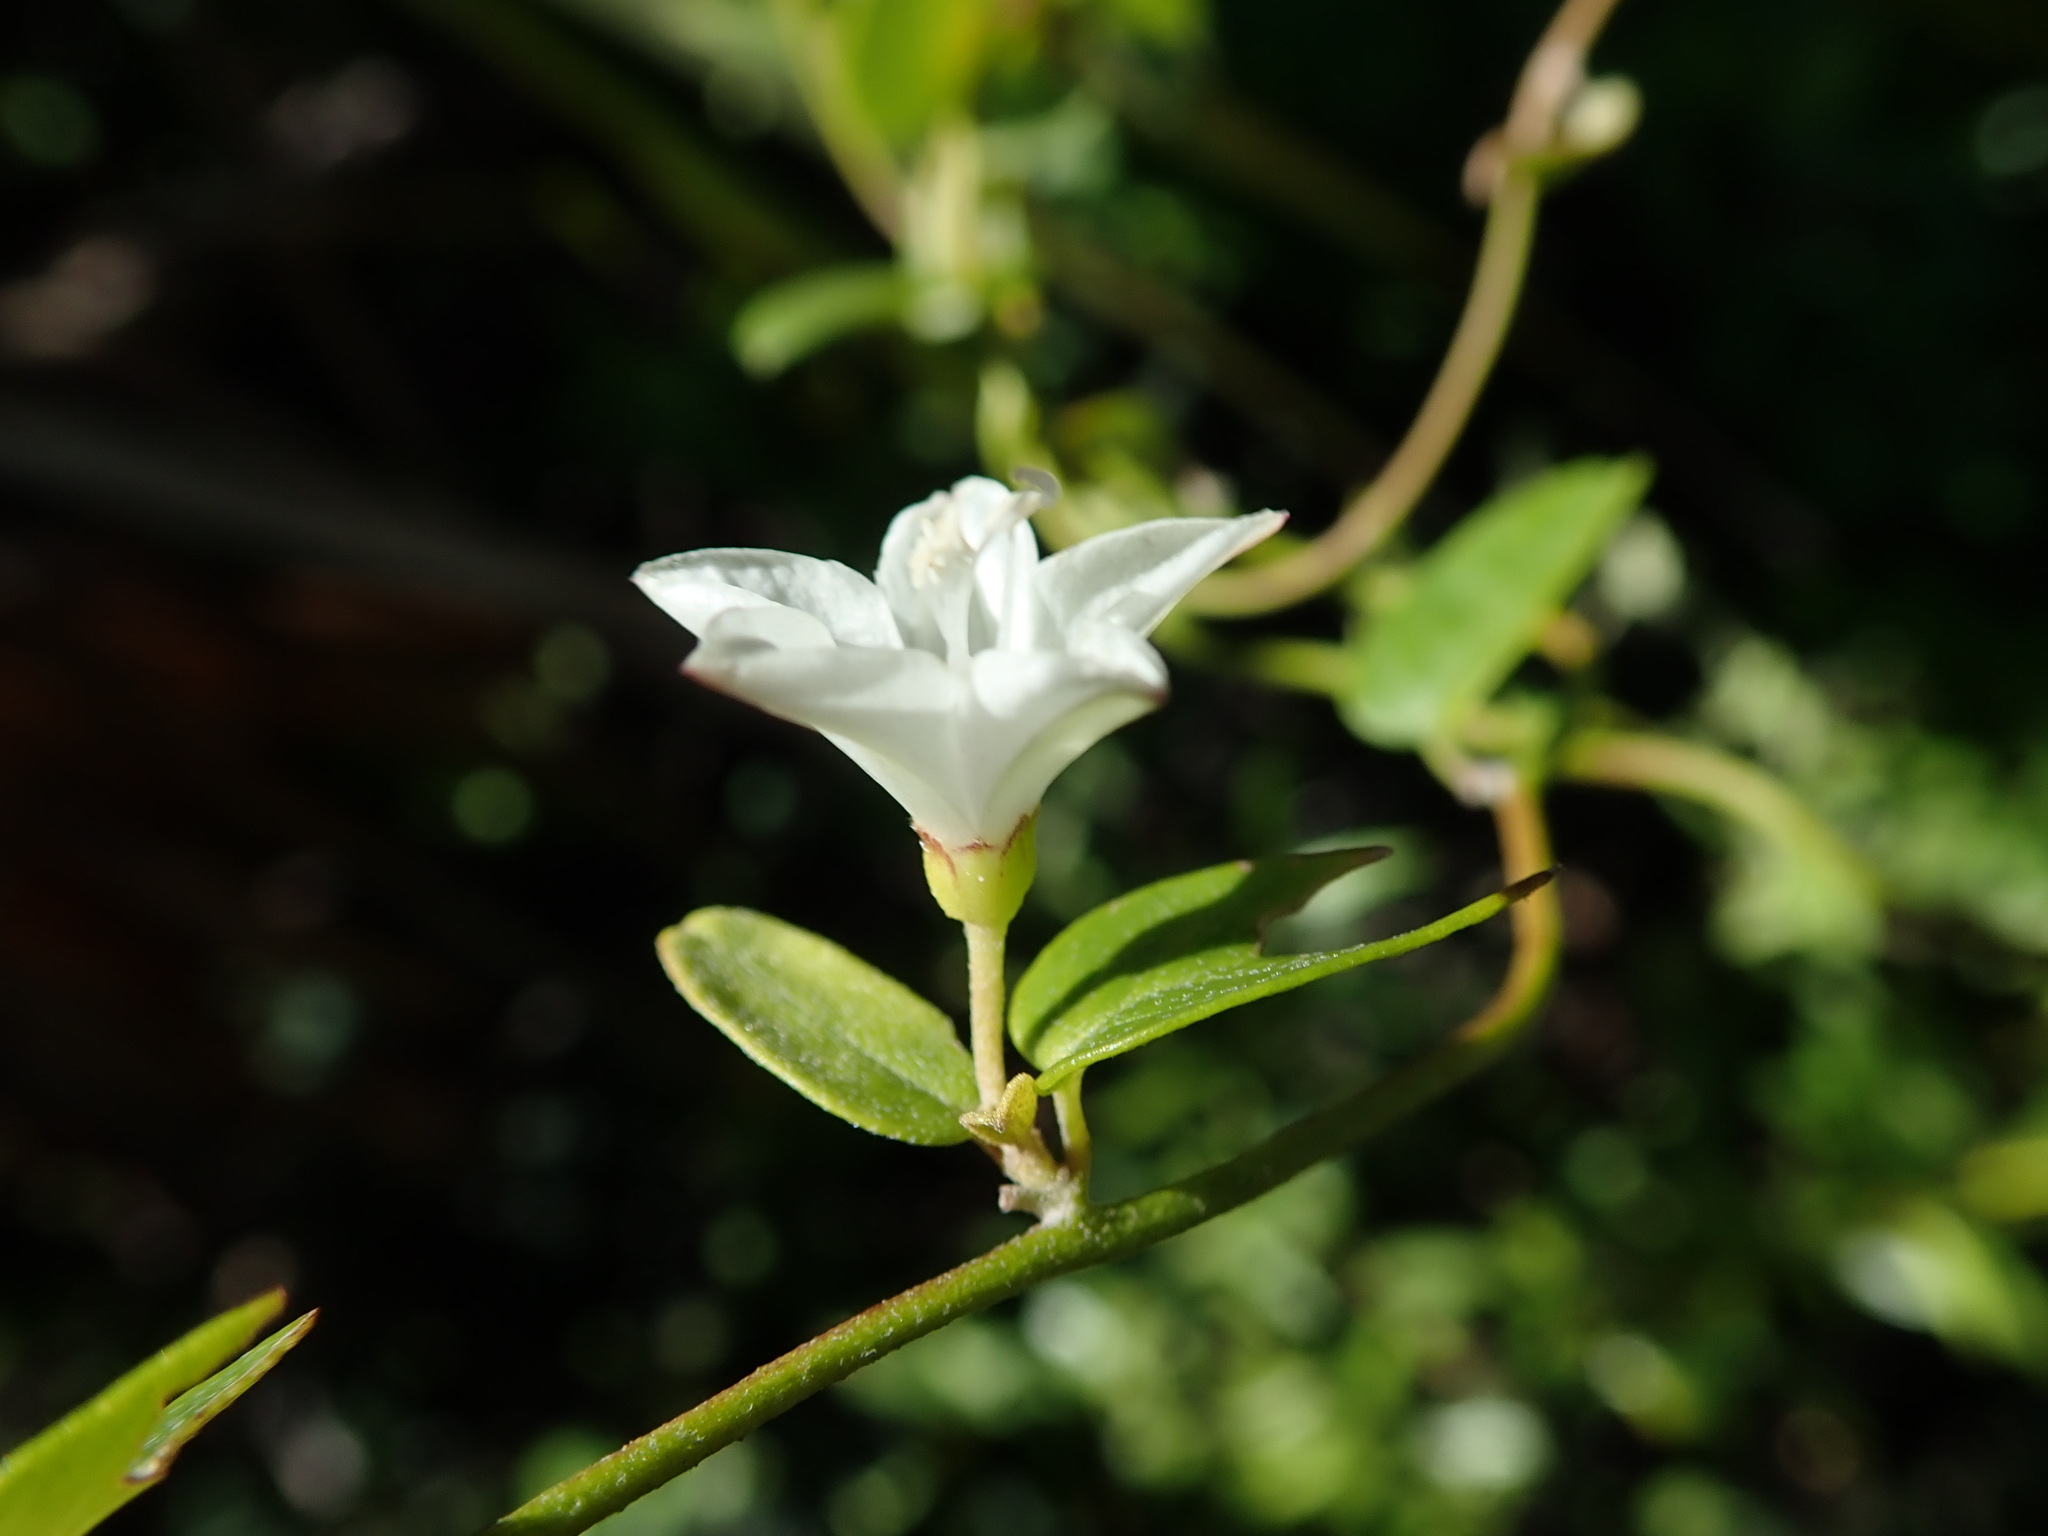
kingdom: Plantae
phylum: Tracheophyta
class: Magnoliopsida
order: Solanales
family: Convolvulaceae
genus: Jacquemontia
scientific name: Jacquemontia havanensis
